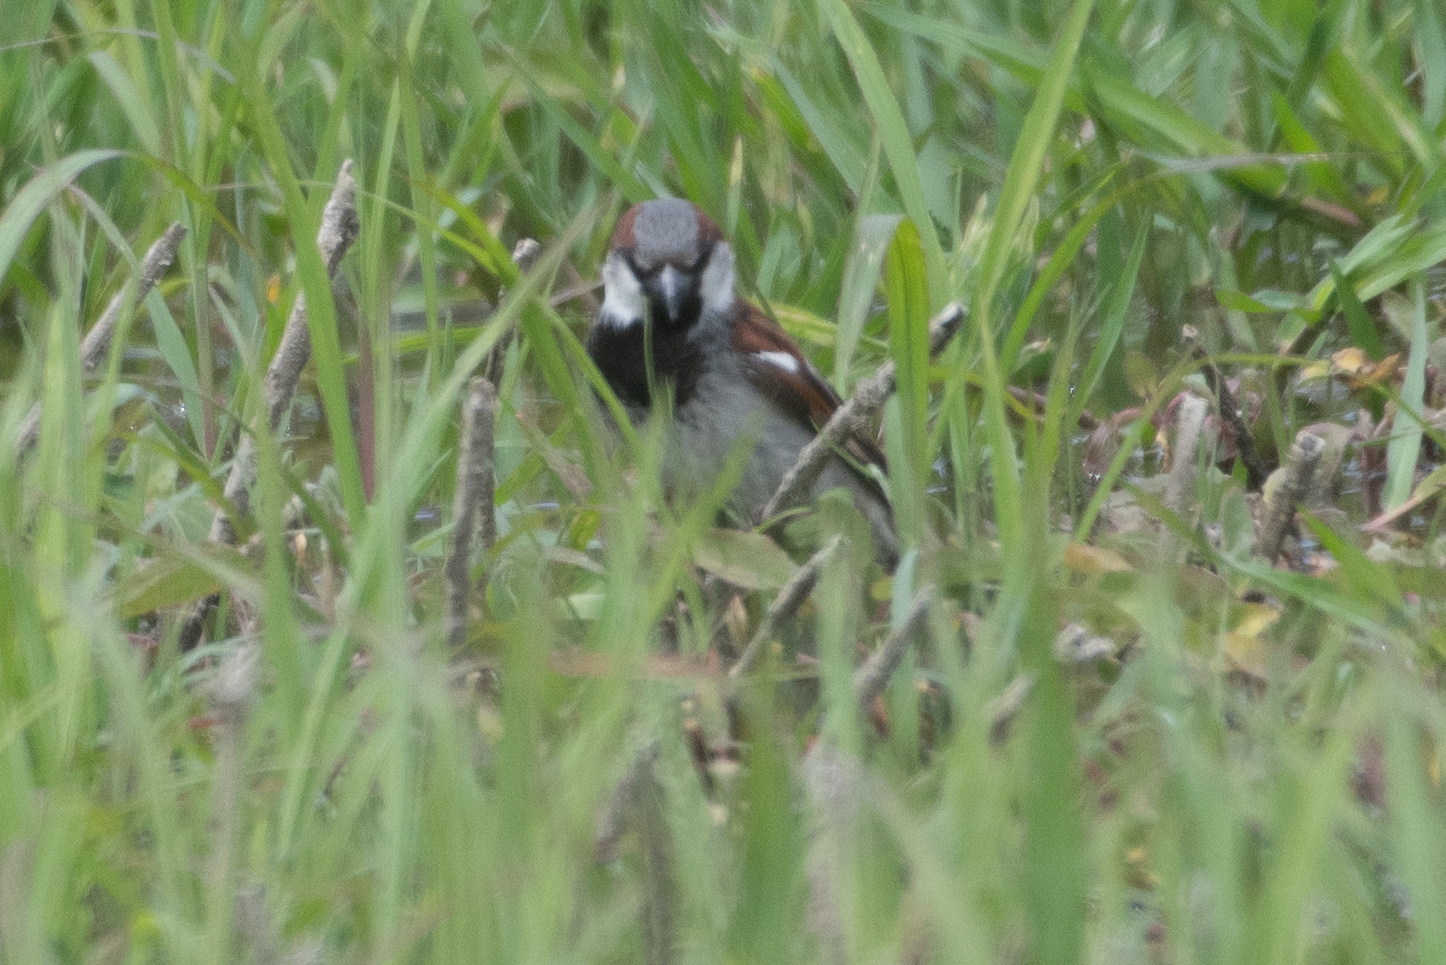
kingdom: Animalia
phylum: Chordata
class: Aves
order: Passeriformes
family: Passeridae
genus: Passer
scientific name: Passer domesticus
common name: House sparrow
